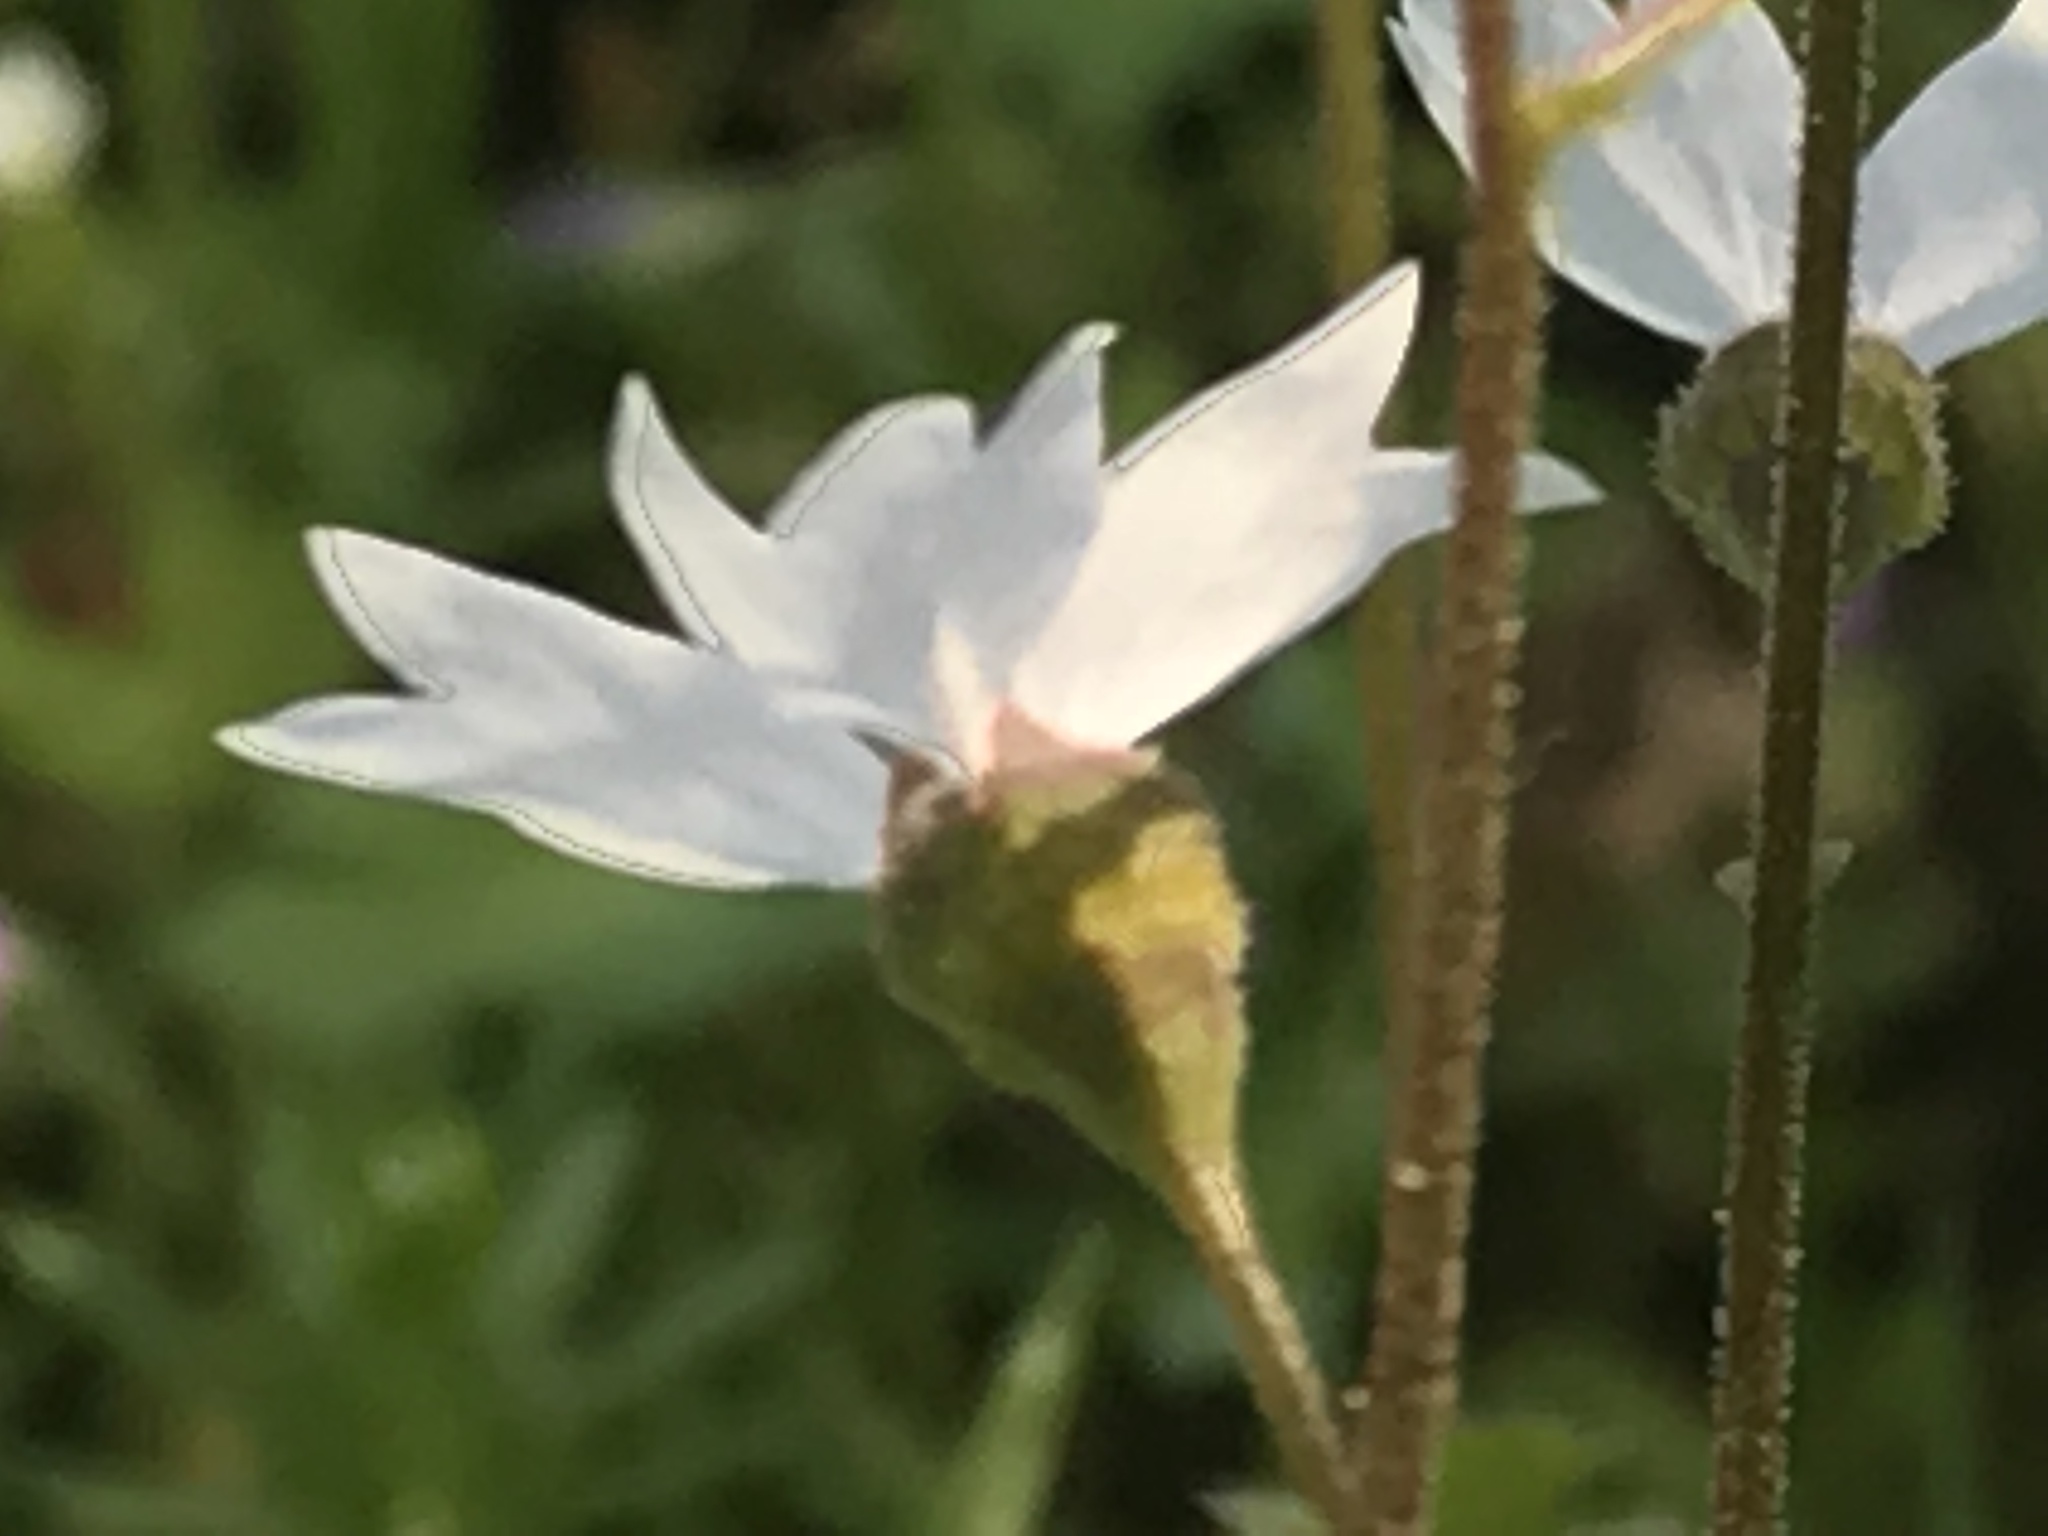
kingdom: Plantae
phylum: Tracheophyta
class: Magnoliopsida
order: Saxifragales
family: Saxifragaceae
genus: Lithophragma
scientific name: Lithophragma affine
